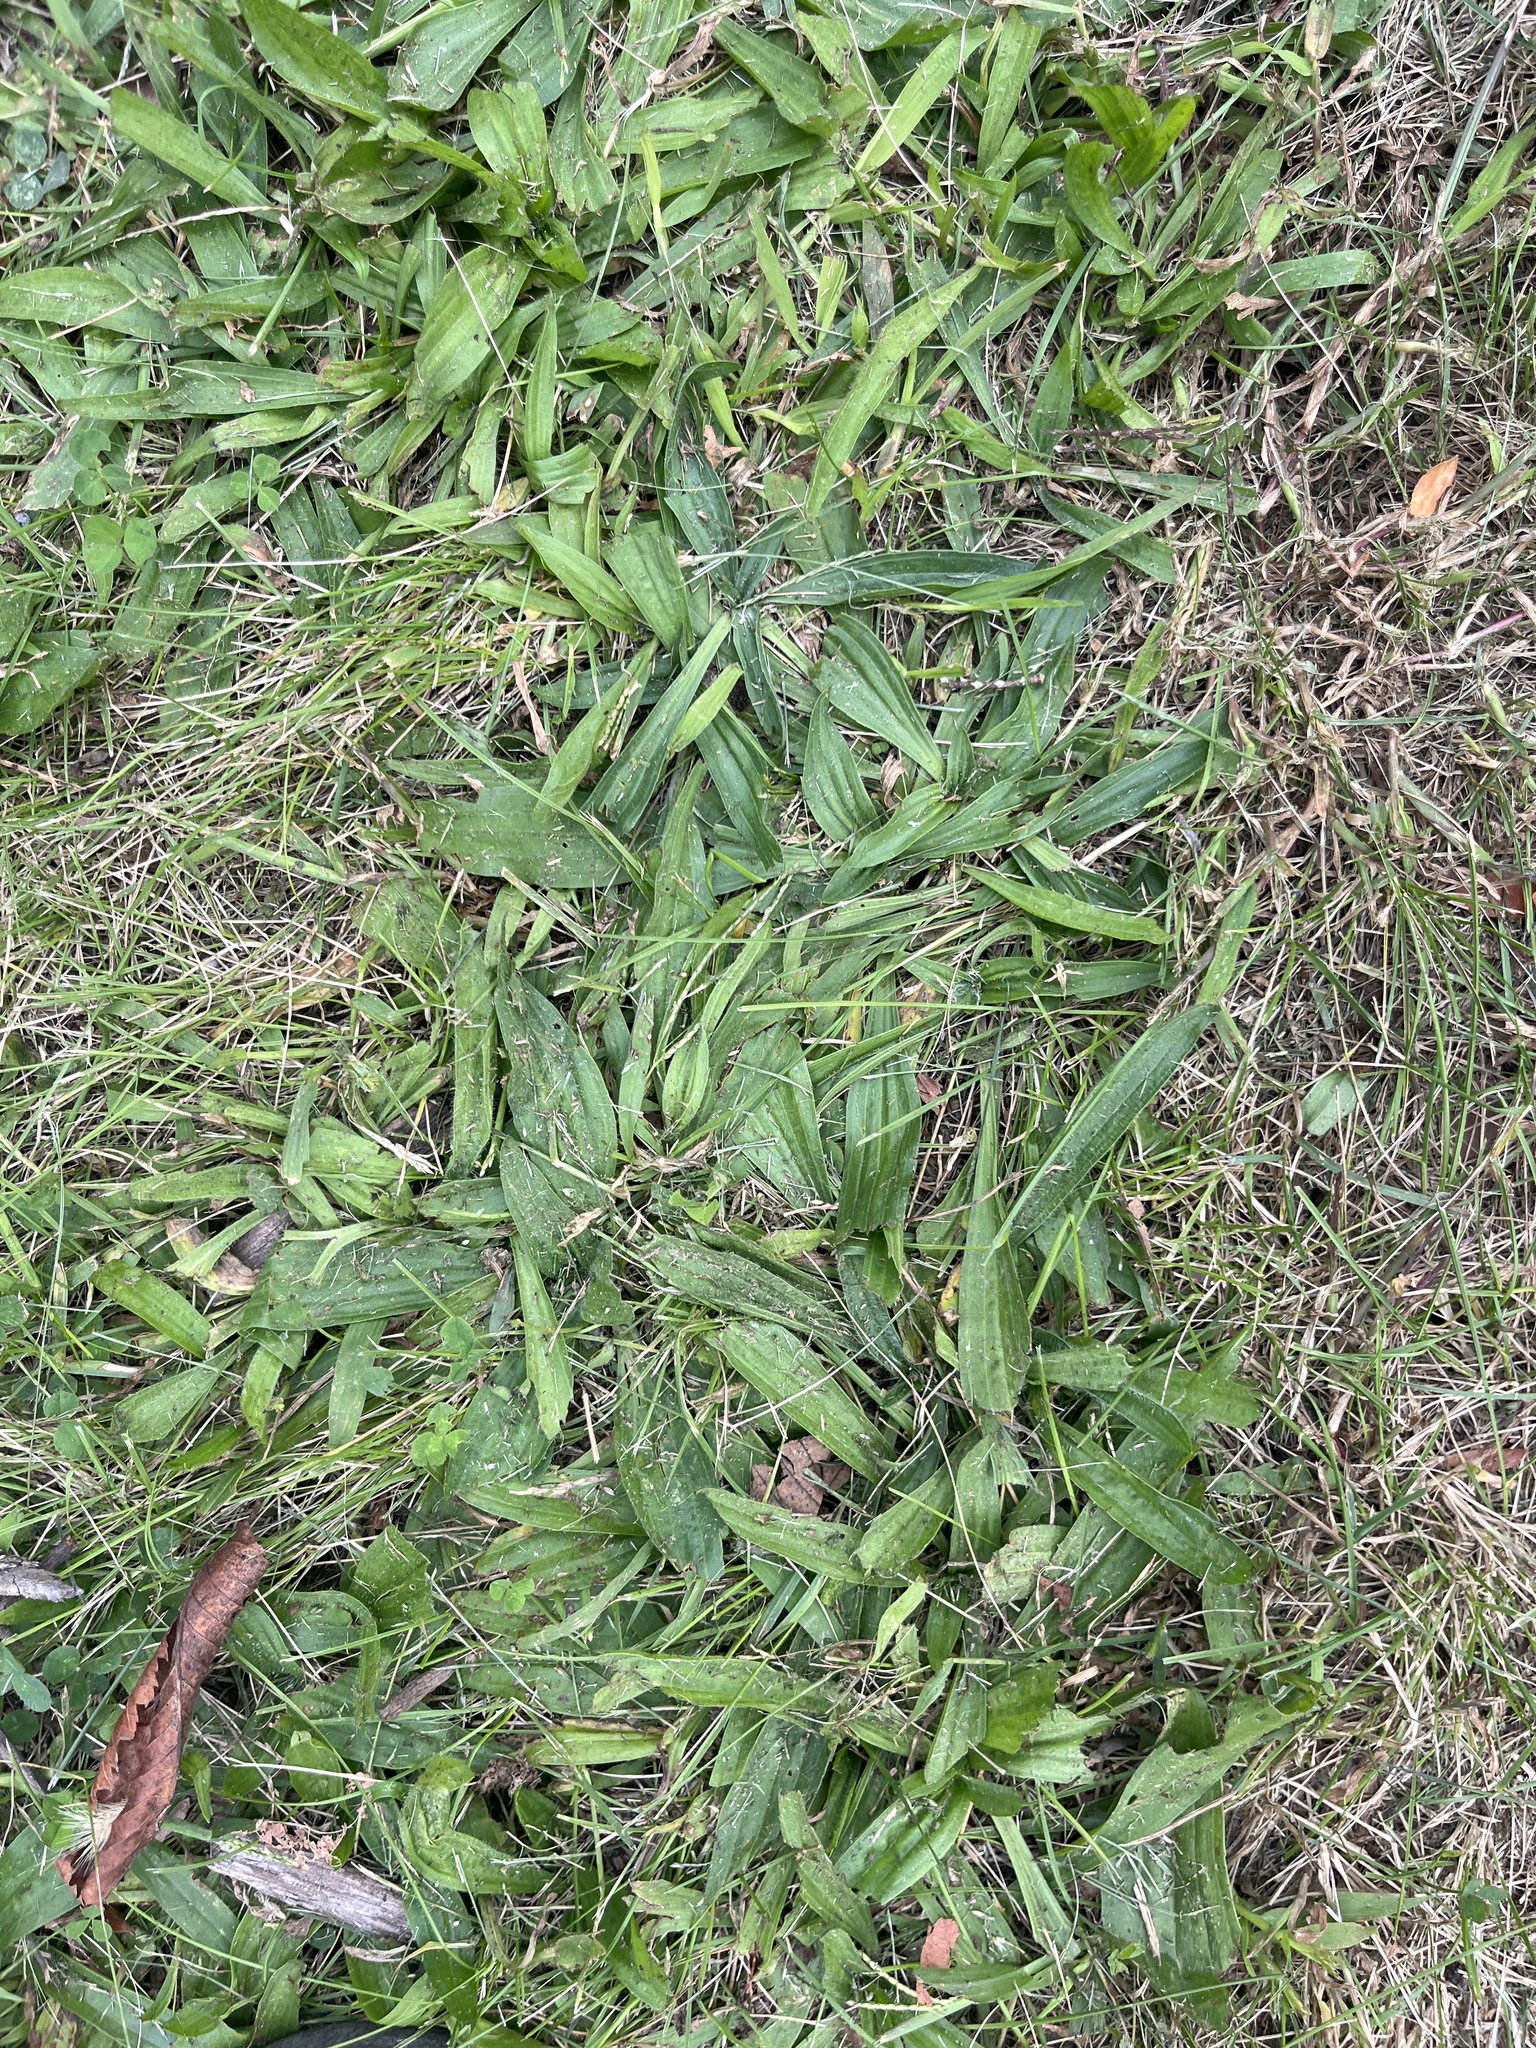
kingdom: Plantae
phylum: Tracheophyta
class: Magnoliopsida
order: Lamiales
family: Plantaginaceae
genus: Plantago
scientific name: Plantago lanceolata
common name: Ribwort plantain
